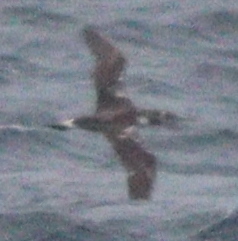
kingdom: Animalia
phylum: Chordata
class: Aves
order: Suliformes
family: Sulidae
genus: Morus
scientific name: Morus bassanus
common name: Northern gannet
